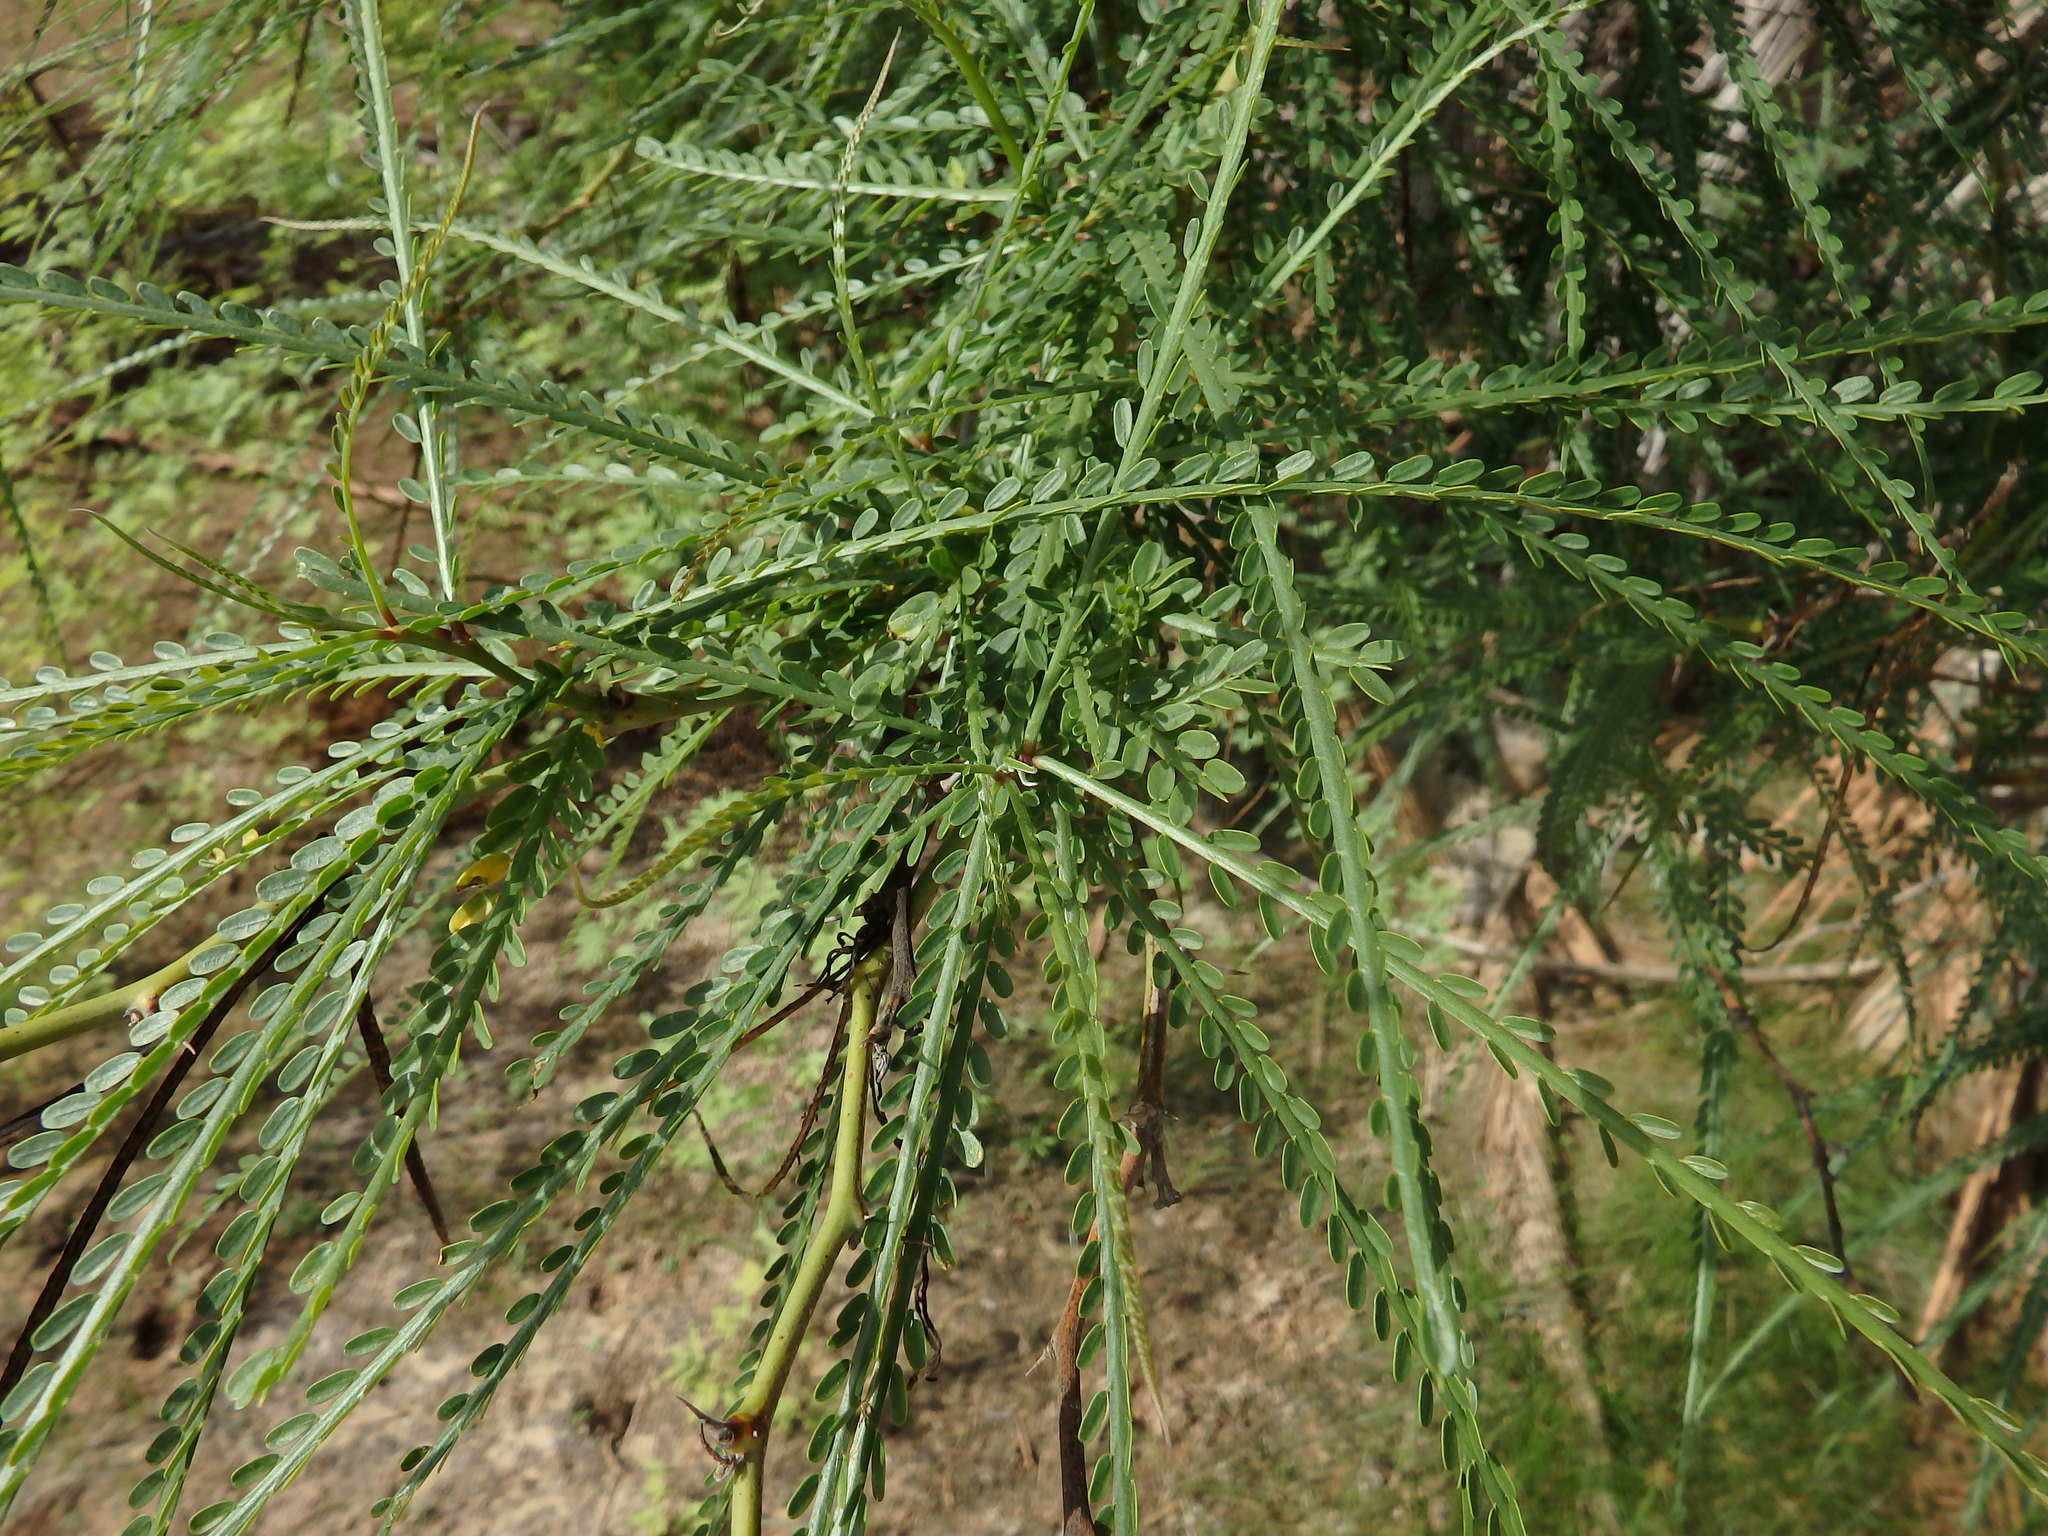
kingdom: Plantae
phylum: Tracheophyta
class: Magnoliopsida
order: Fabales
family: Fabaceae
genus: Parkinsonia
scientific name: Parkinsonia aculeata
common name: Jerusalem thorn
